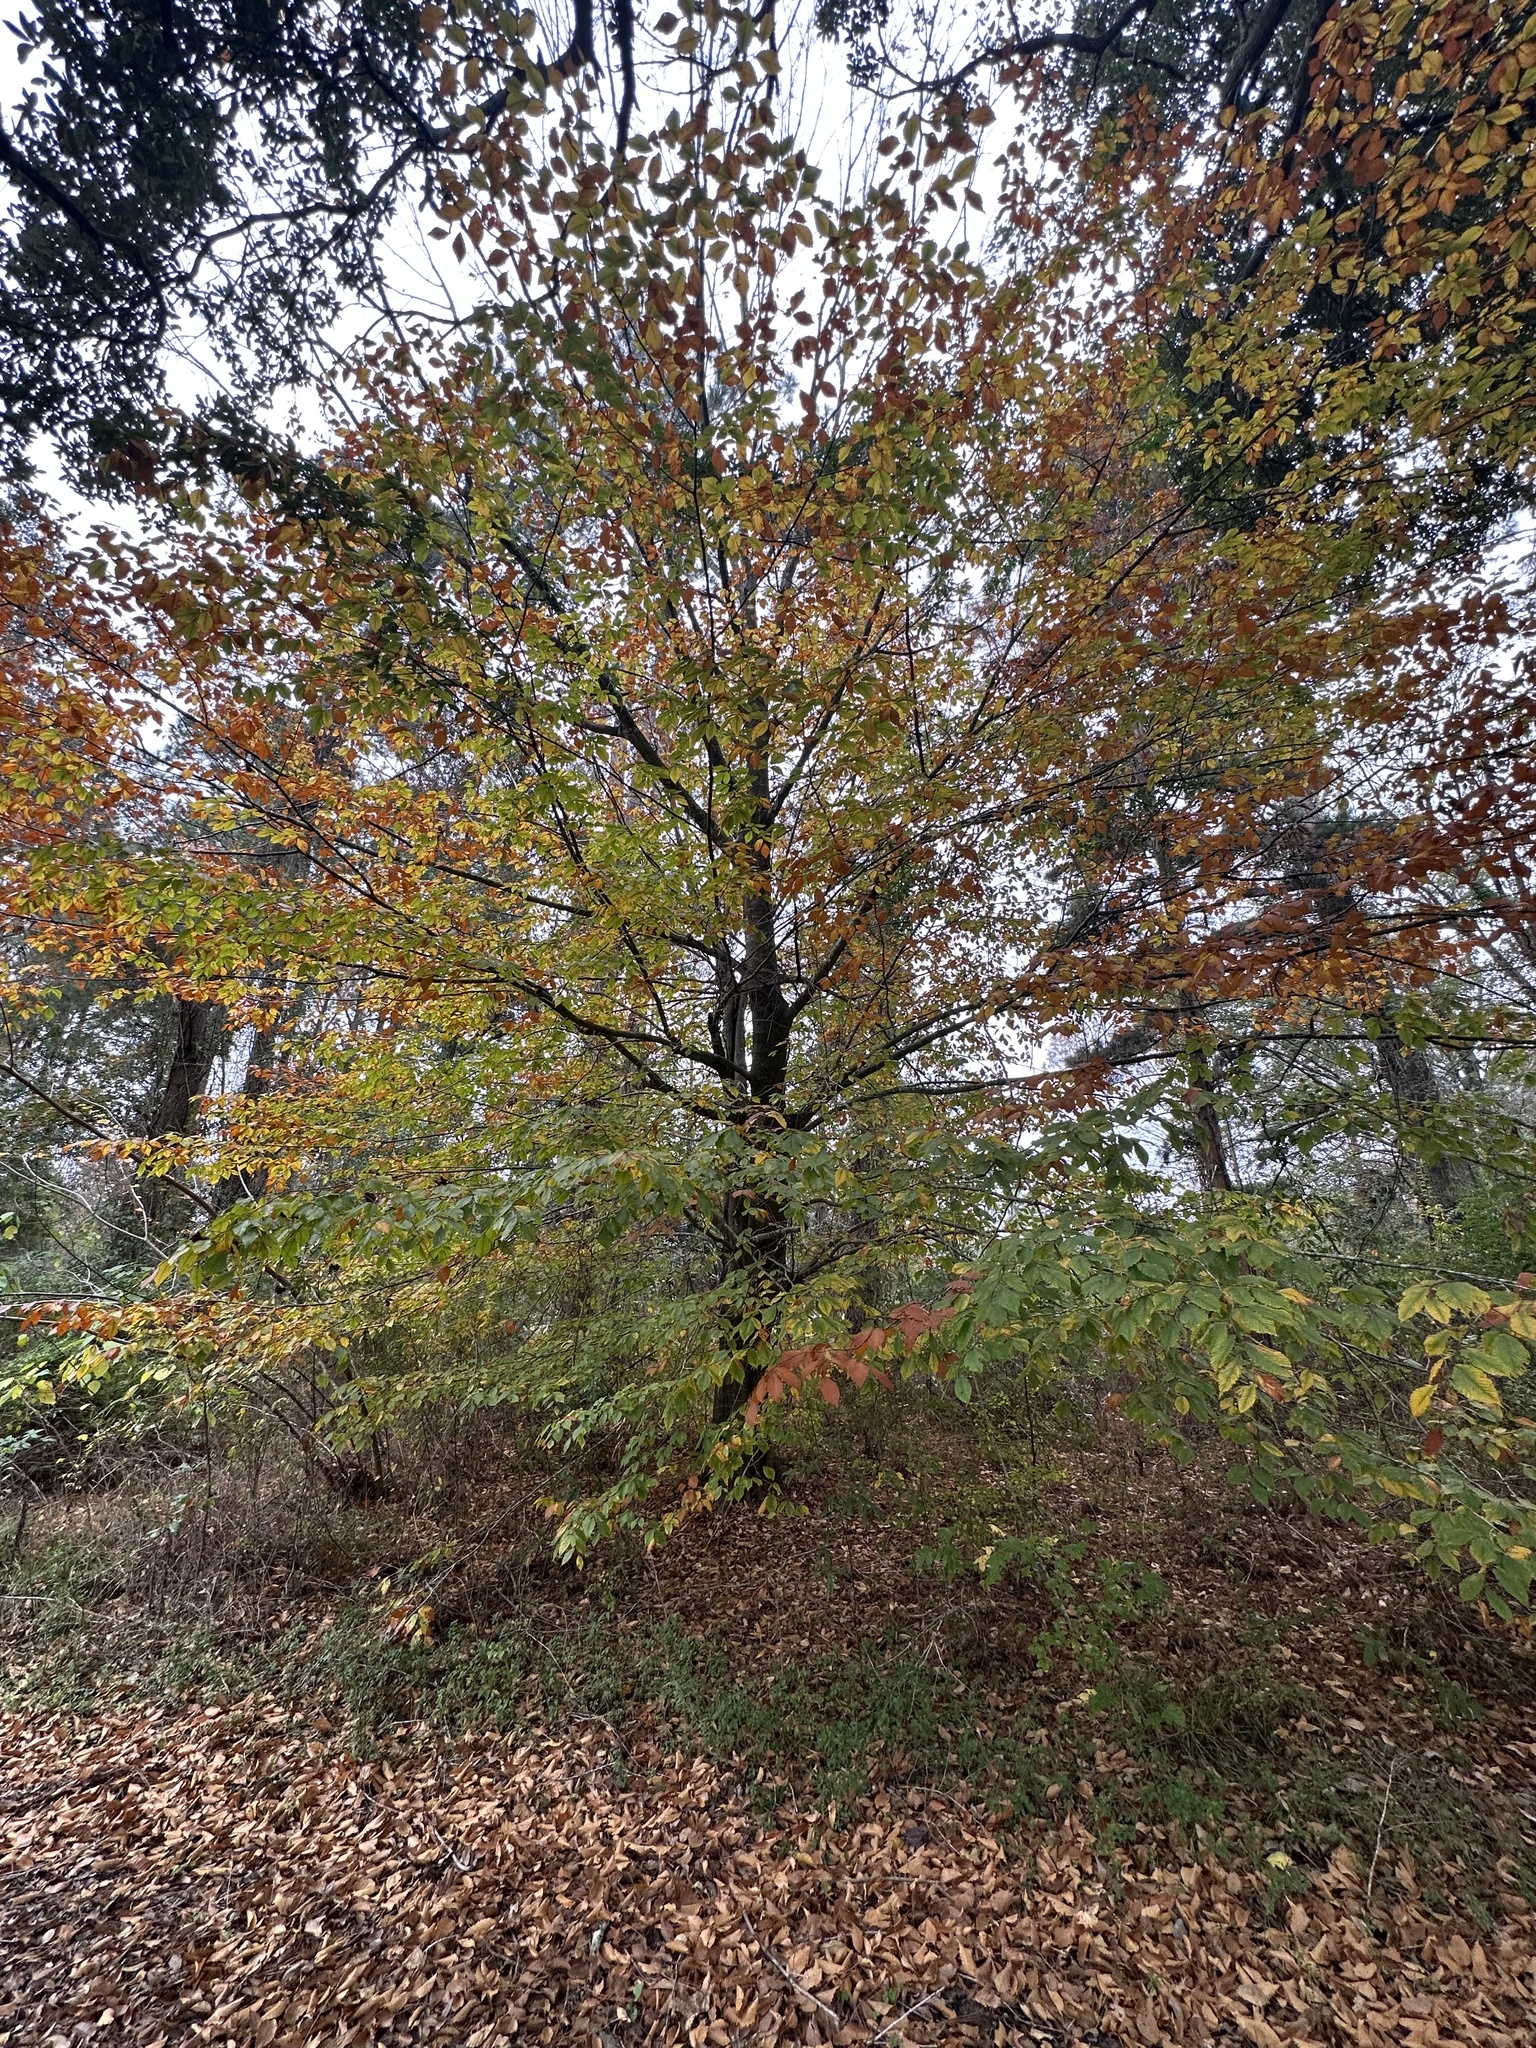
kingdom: Plantae
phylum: Tracheophyta
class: Magnoliopsida
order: Fagales
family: Fagaceae
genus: Fagus
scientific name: Fagus grandifolia
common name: American beech
